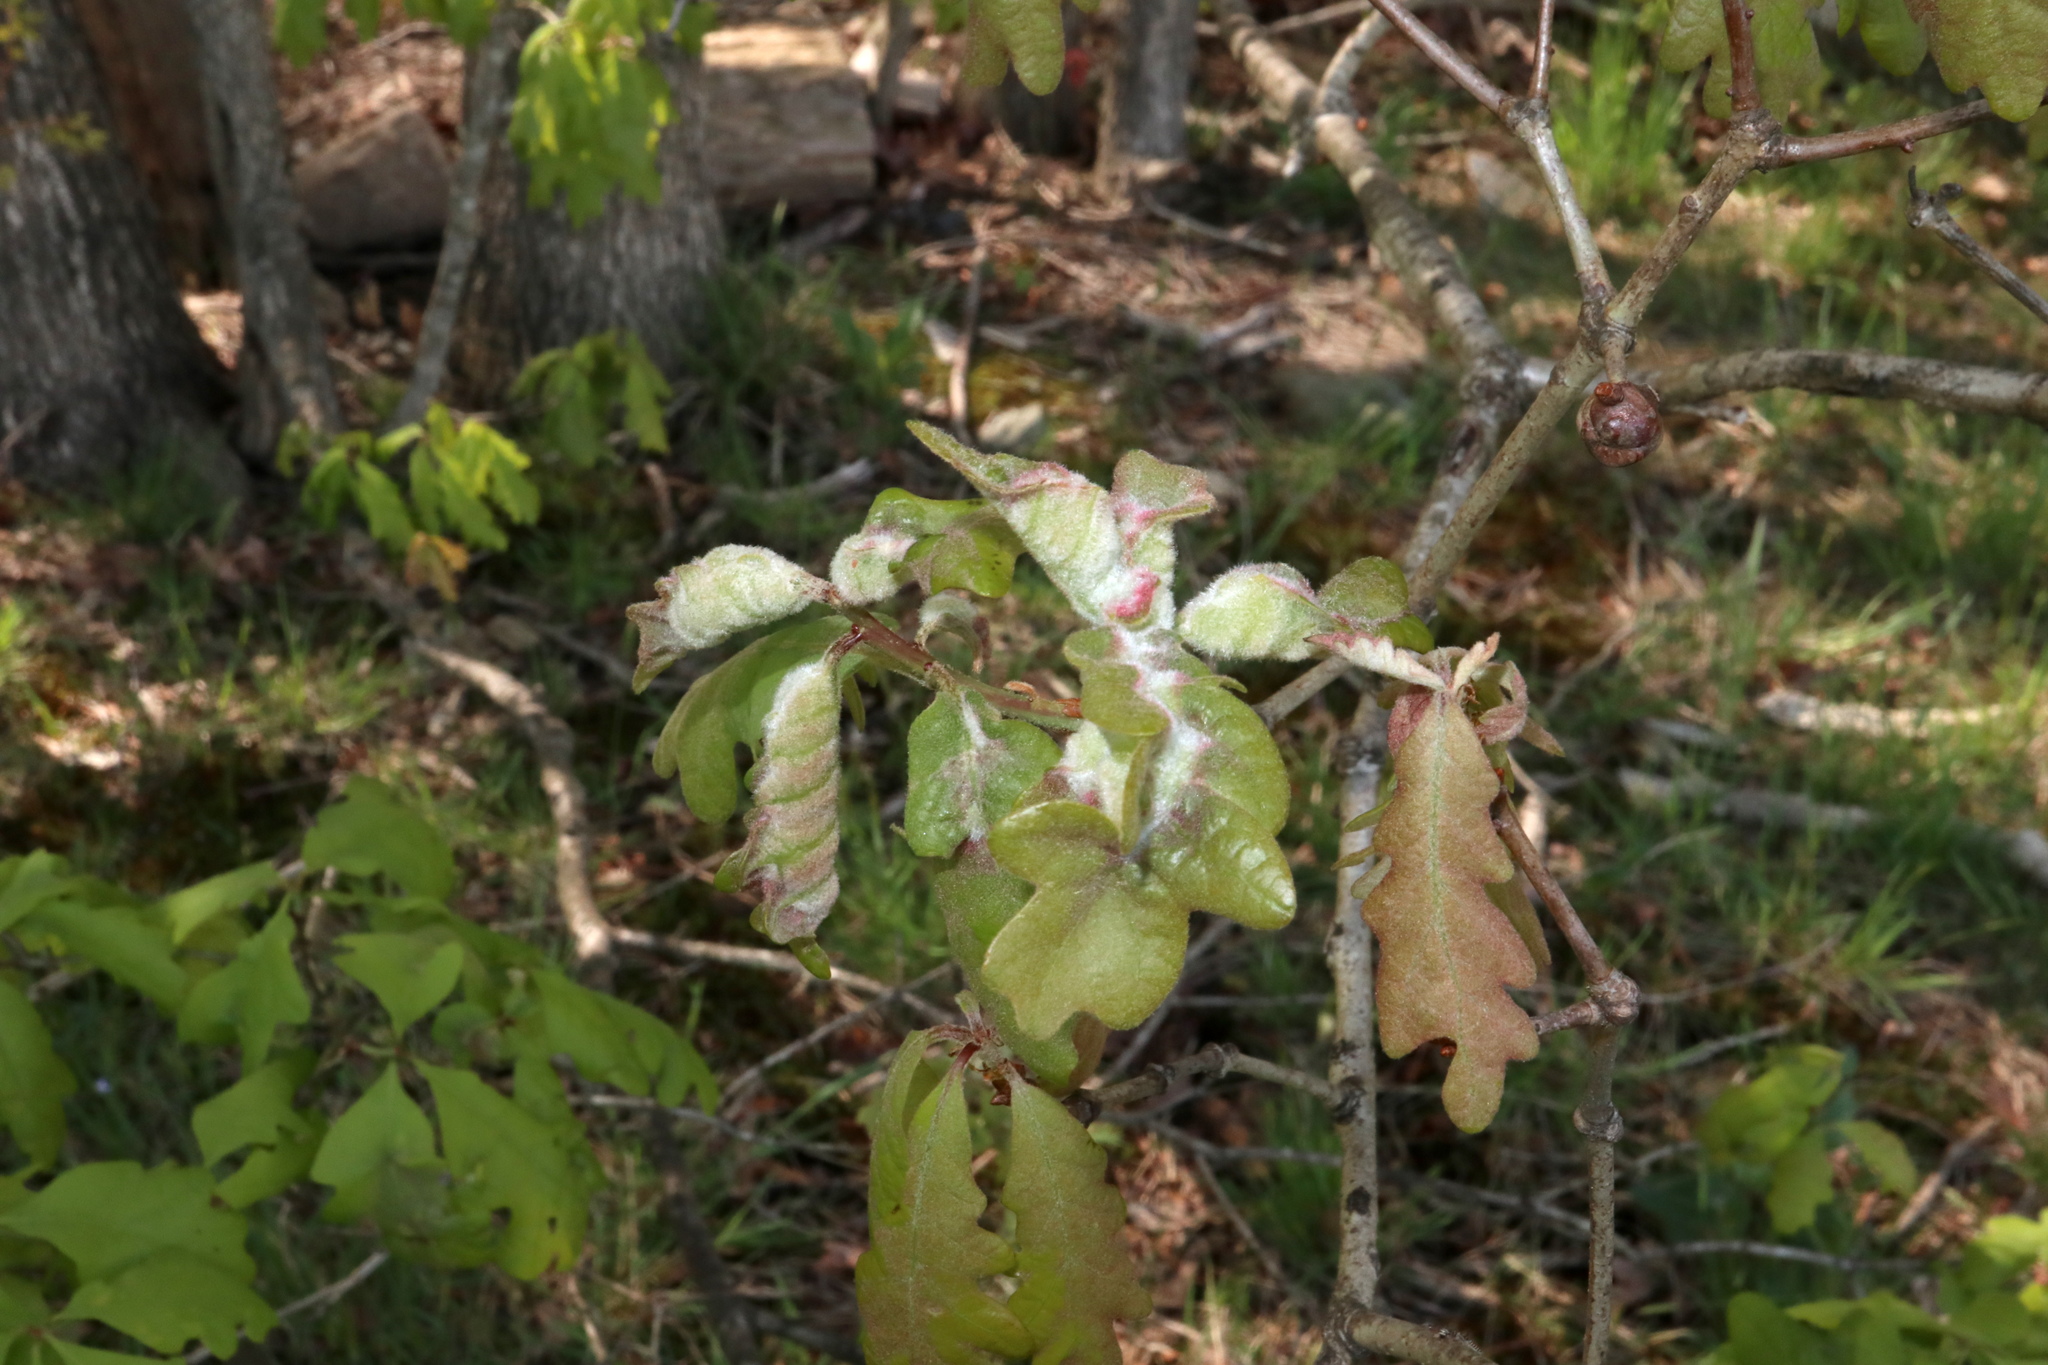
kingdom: Animalia
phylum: Arthropoda
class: Insecta
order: Diptera
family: Cecidomyiidae
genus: Macrodiplosis
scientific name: Macrodiplosis niveipila
